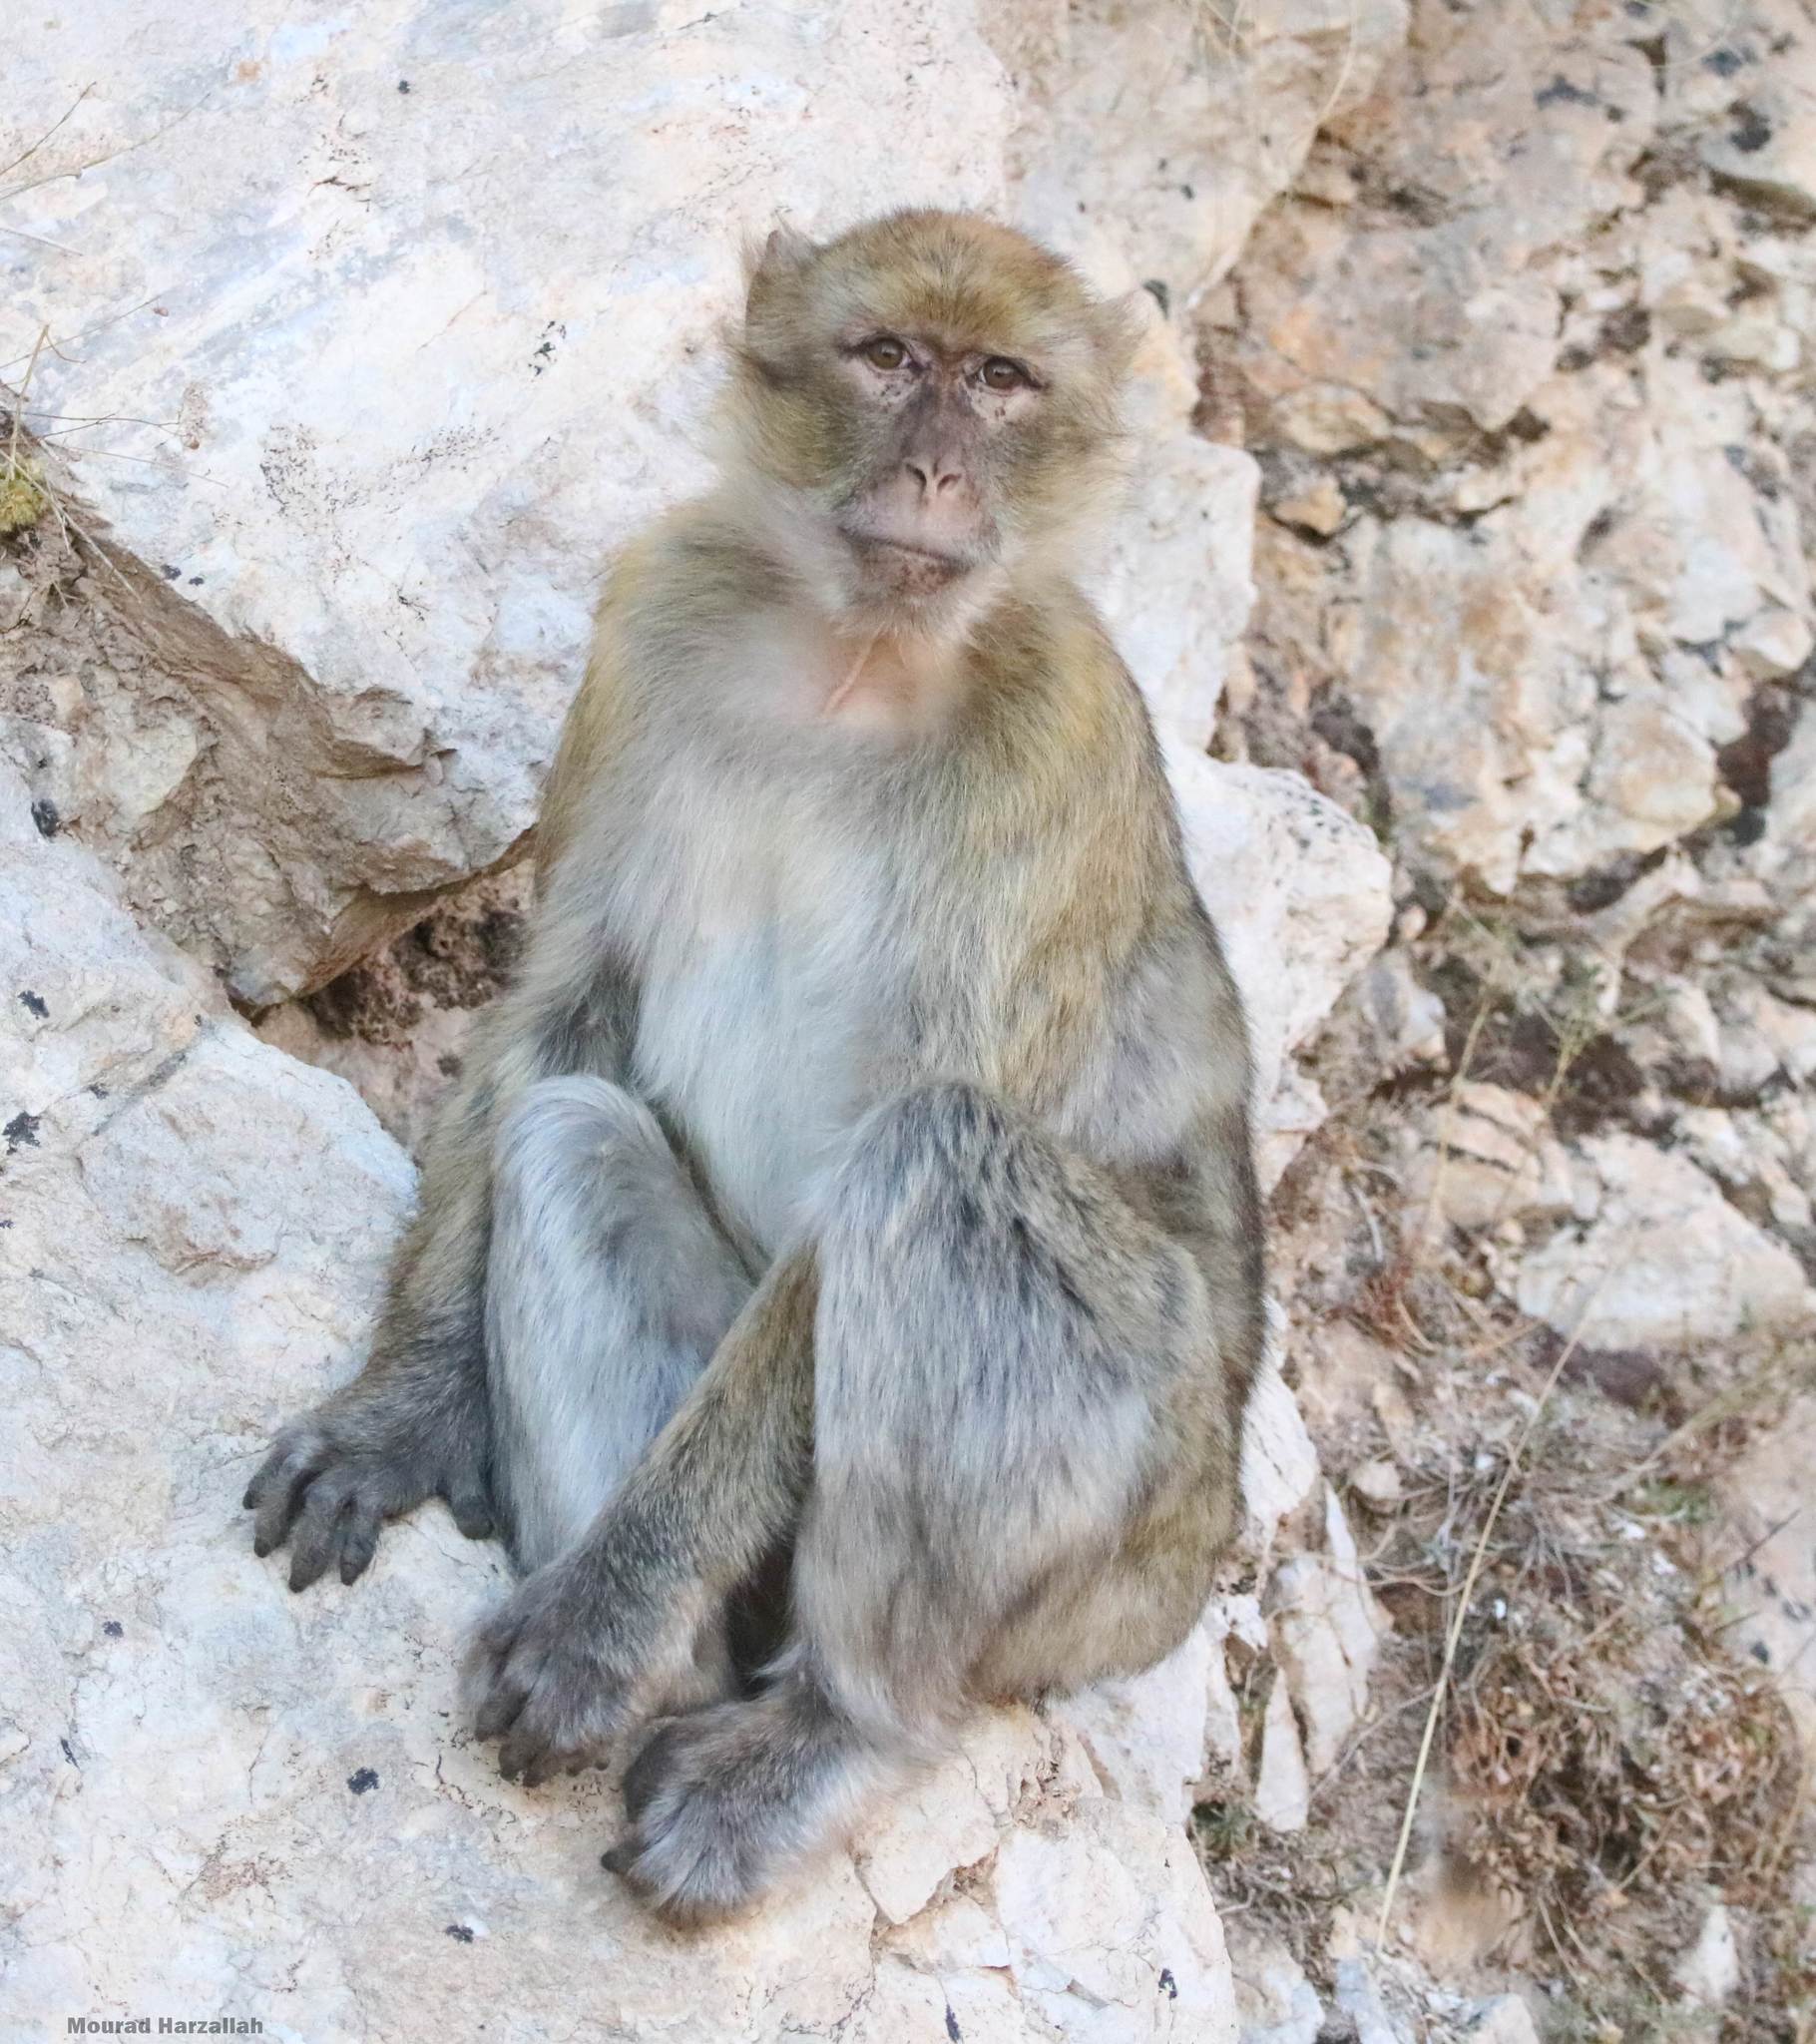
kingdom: Animalia
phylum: Chordata
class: Mammalia
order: Primates
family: Cercopithecidae
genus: Macaca
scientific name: Macaca sylvanus
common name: Barbary macaque
